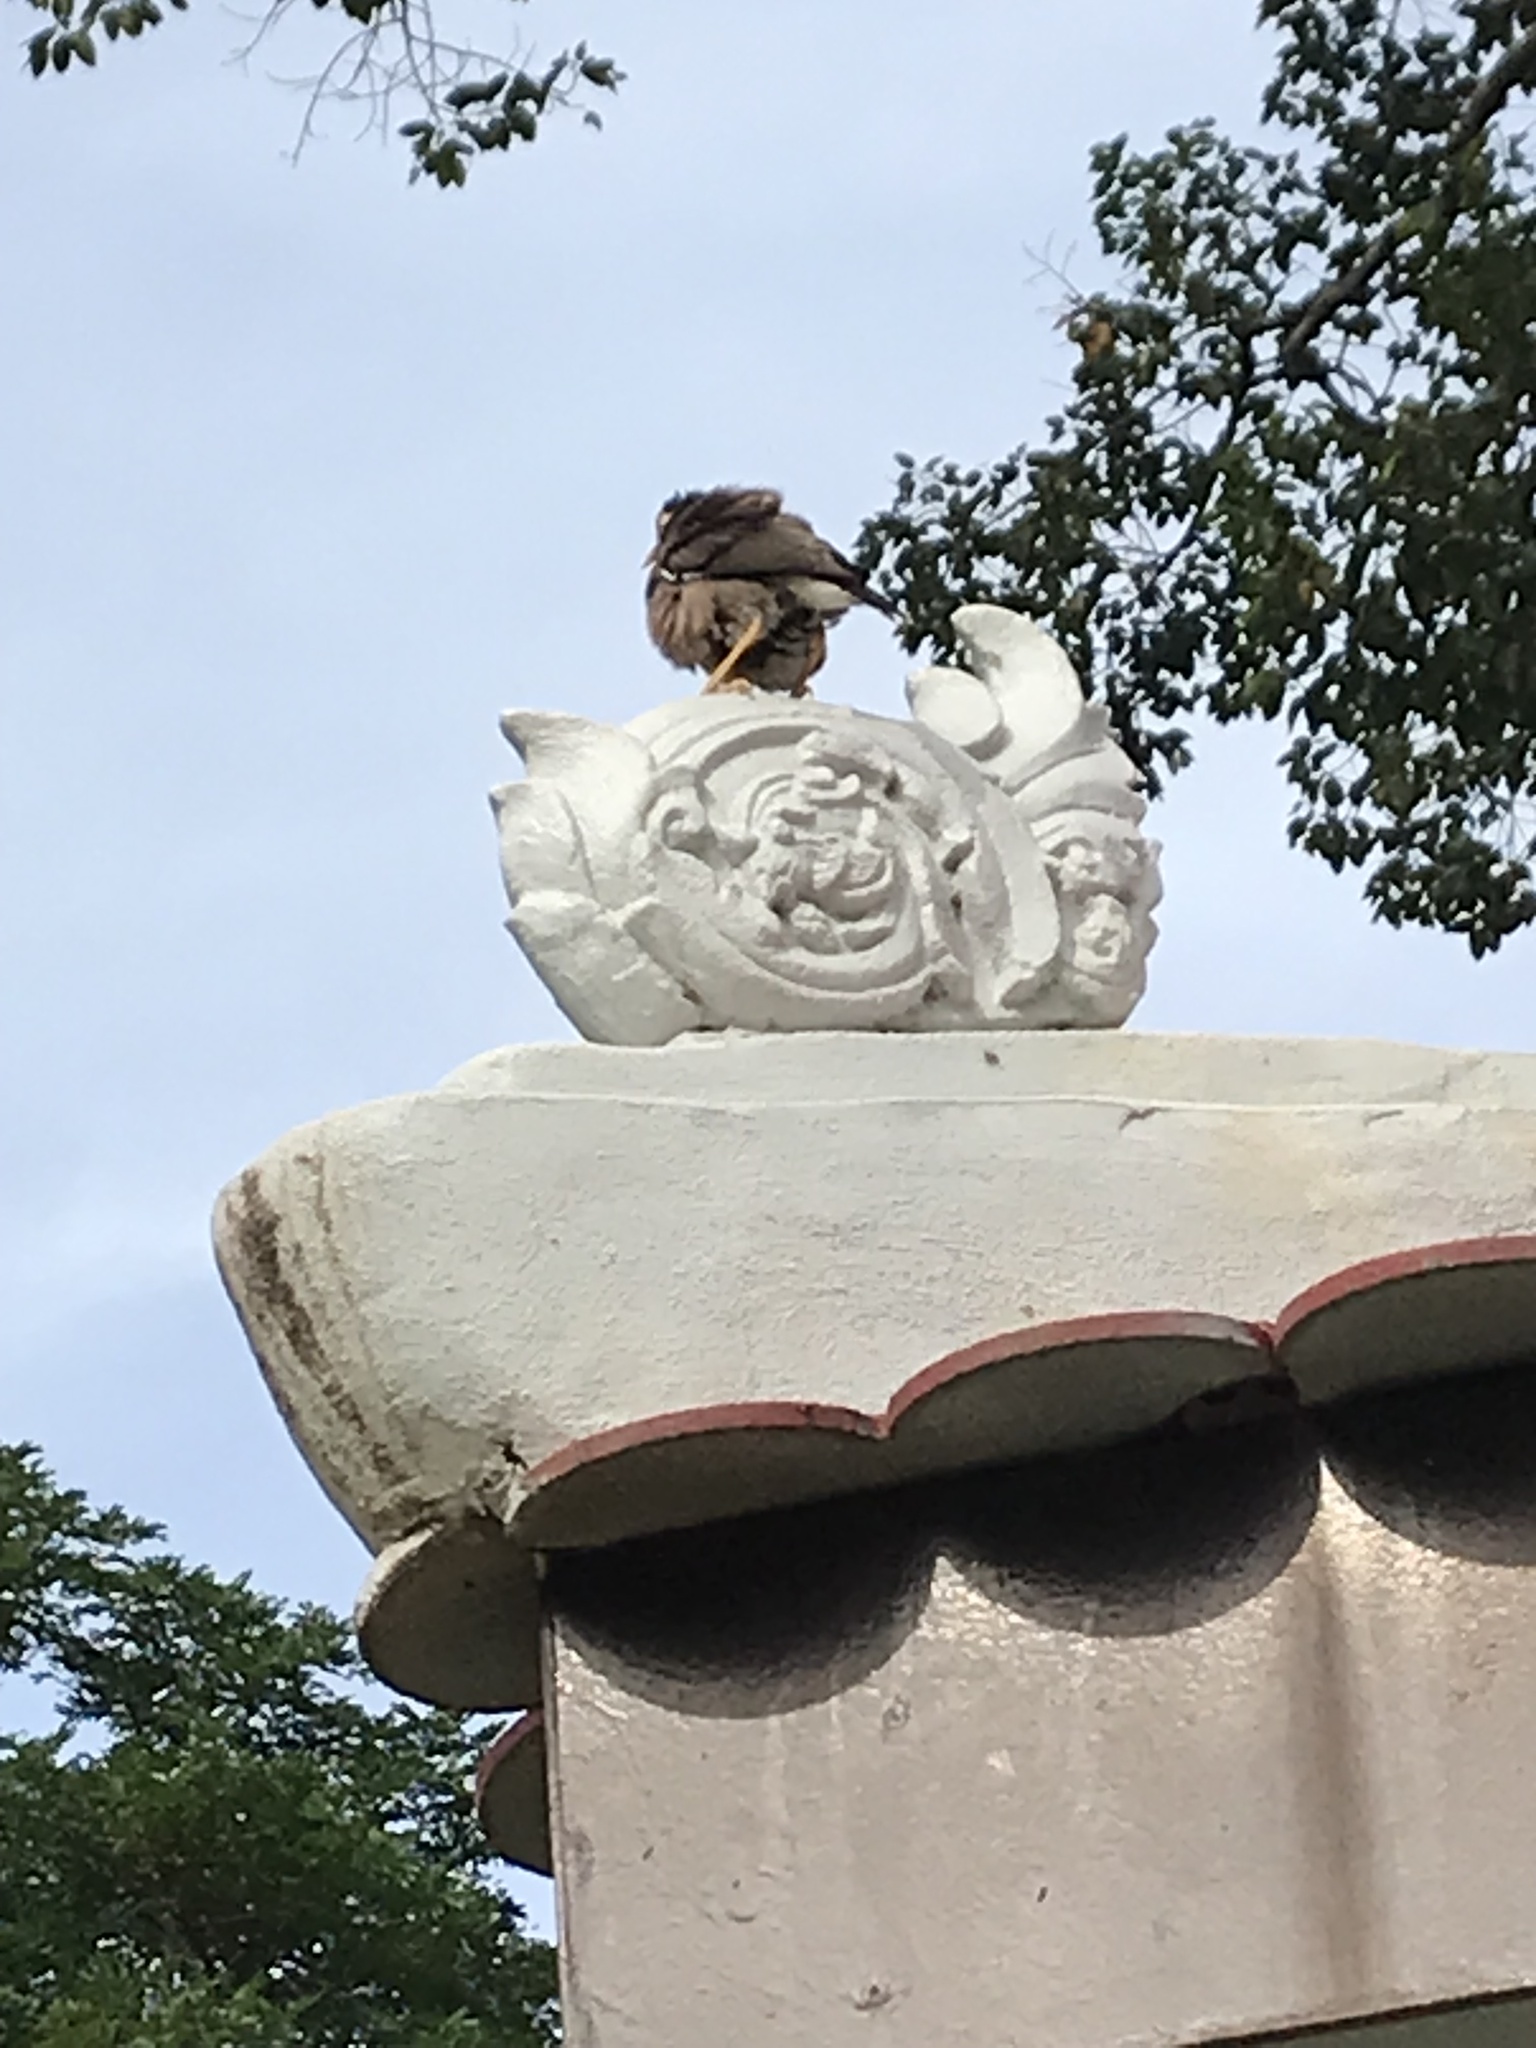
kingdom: Animalia
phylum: Chordata
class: Aves
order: Passeriformes
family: Sturnidae
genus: Acridotheres
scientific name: Acridotheres tristis
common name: Common myna
